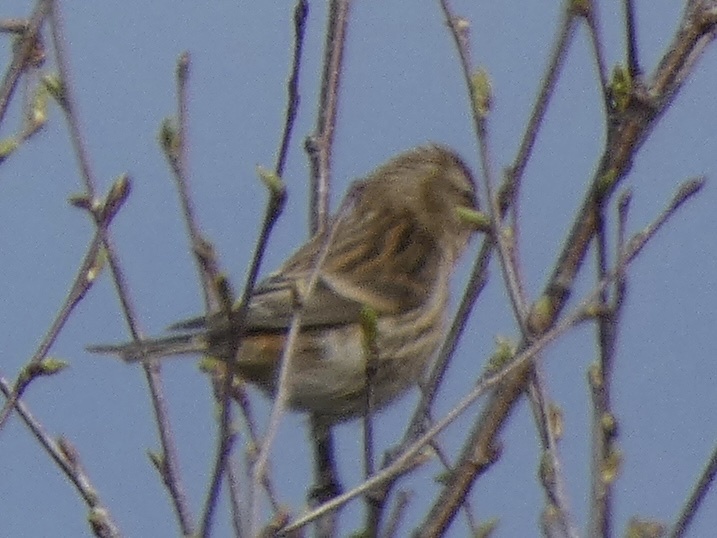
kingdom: Animalia
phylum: Chordata
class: Aves
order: Passeriformes
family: Fringillidae
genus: Acanthis
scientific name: Acanthis flammea
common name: Common redpoll
